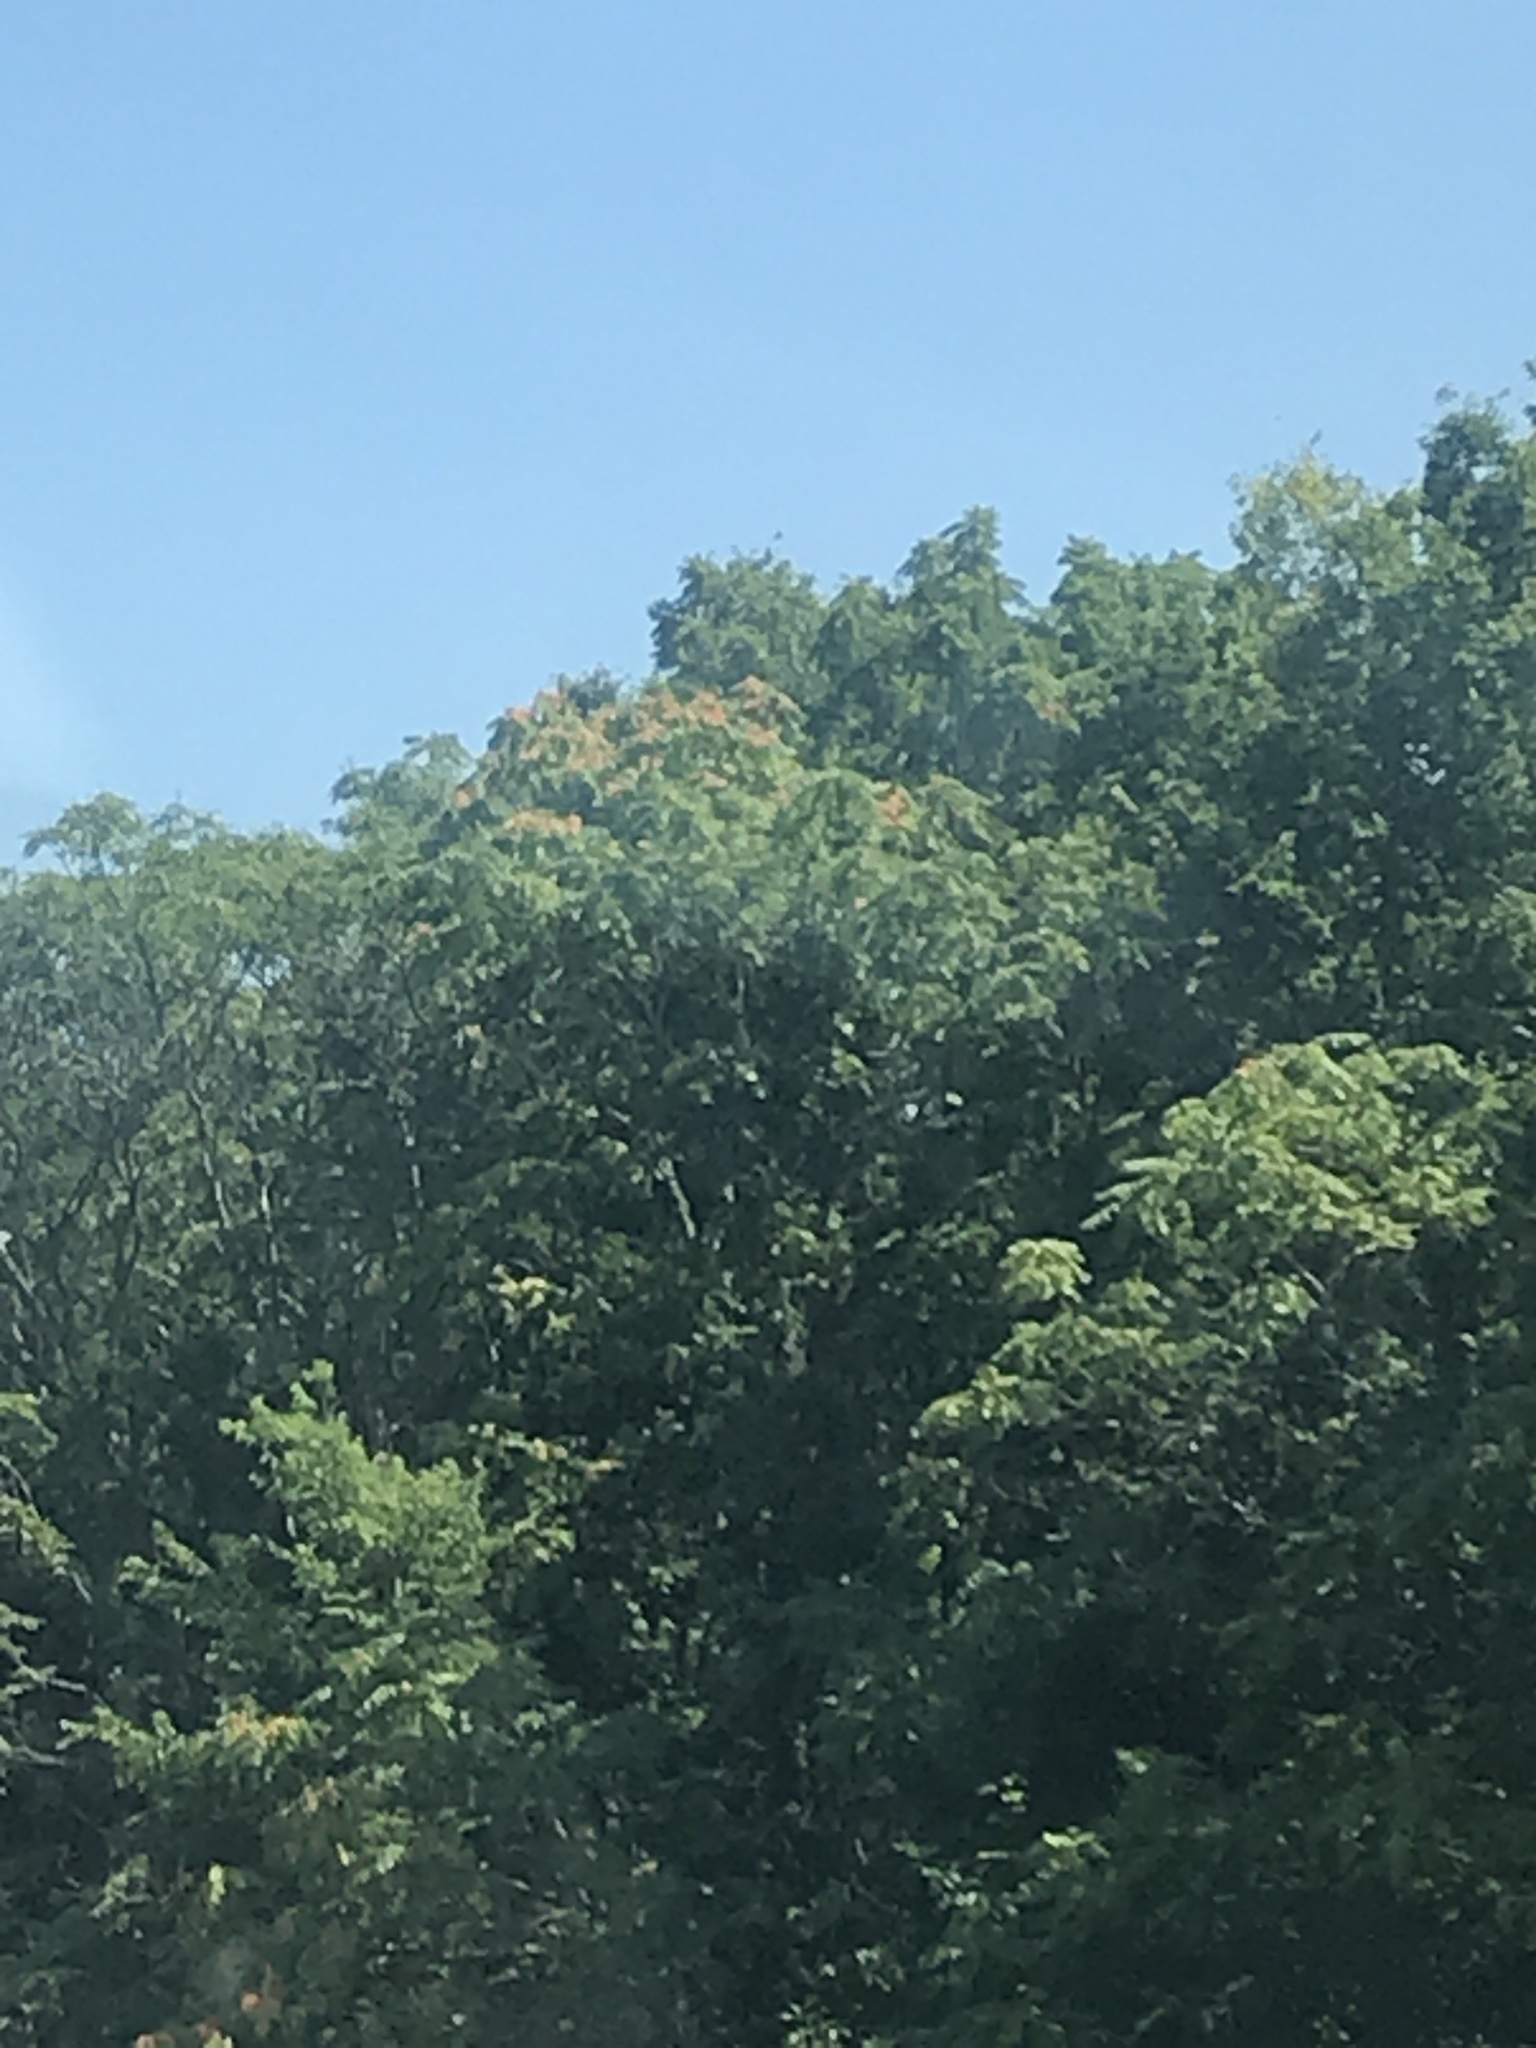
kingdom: Plantae
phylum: Tracheophyta
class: Magnoliopsida
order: Sapindales
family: Simaroubaceae
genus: Ailanthus
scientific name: Ailanthus altissima
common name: Tree-of-heaven
